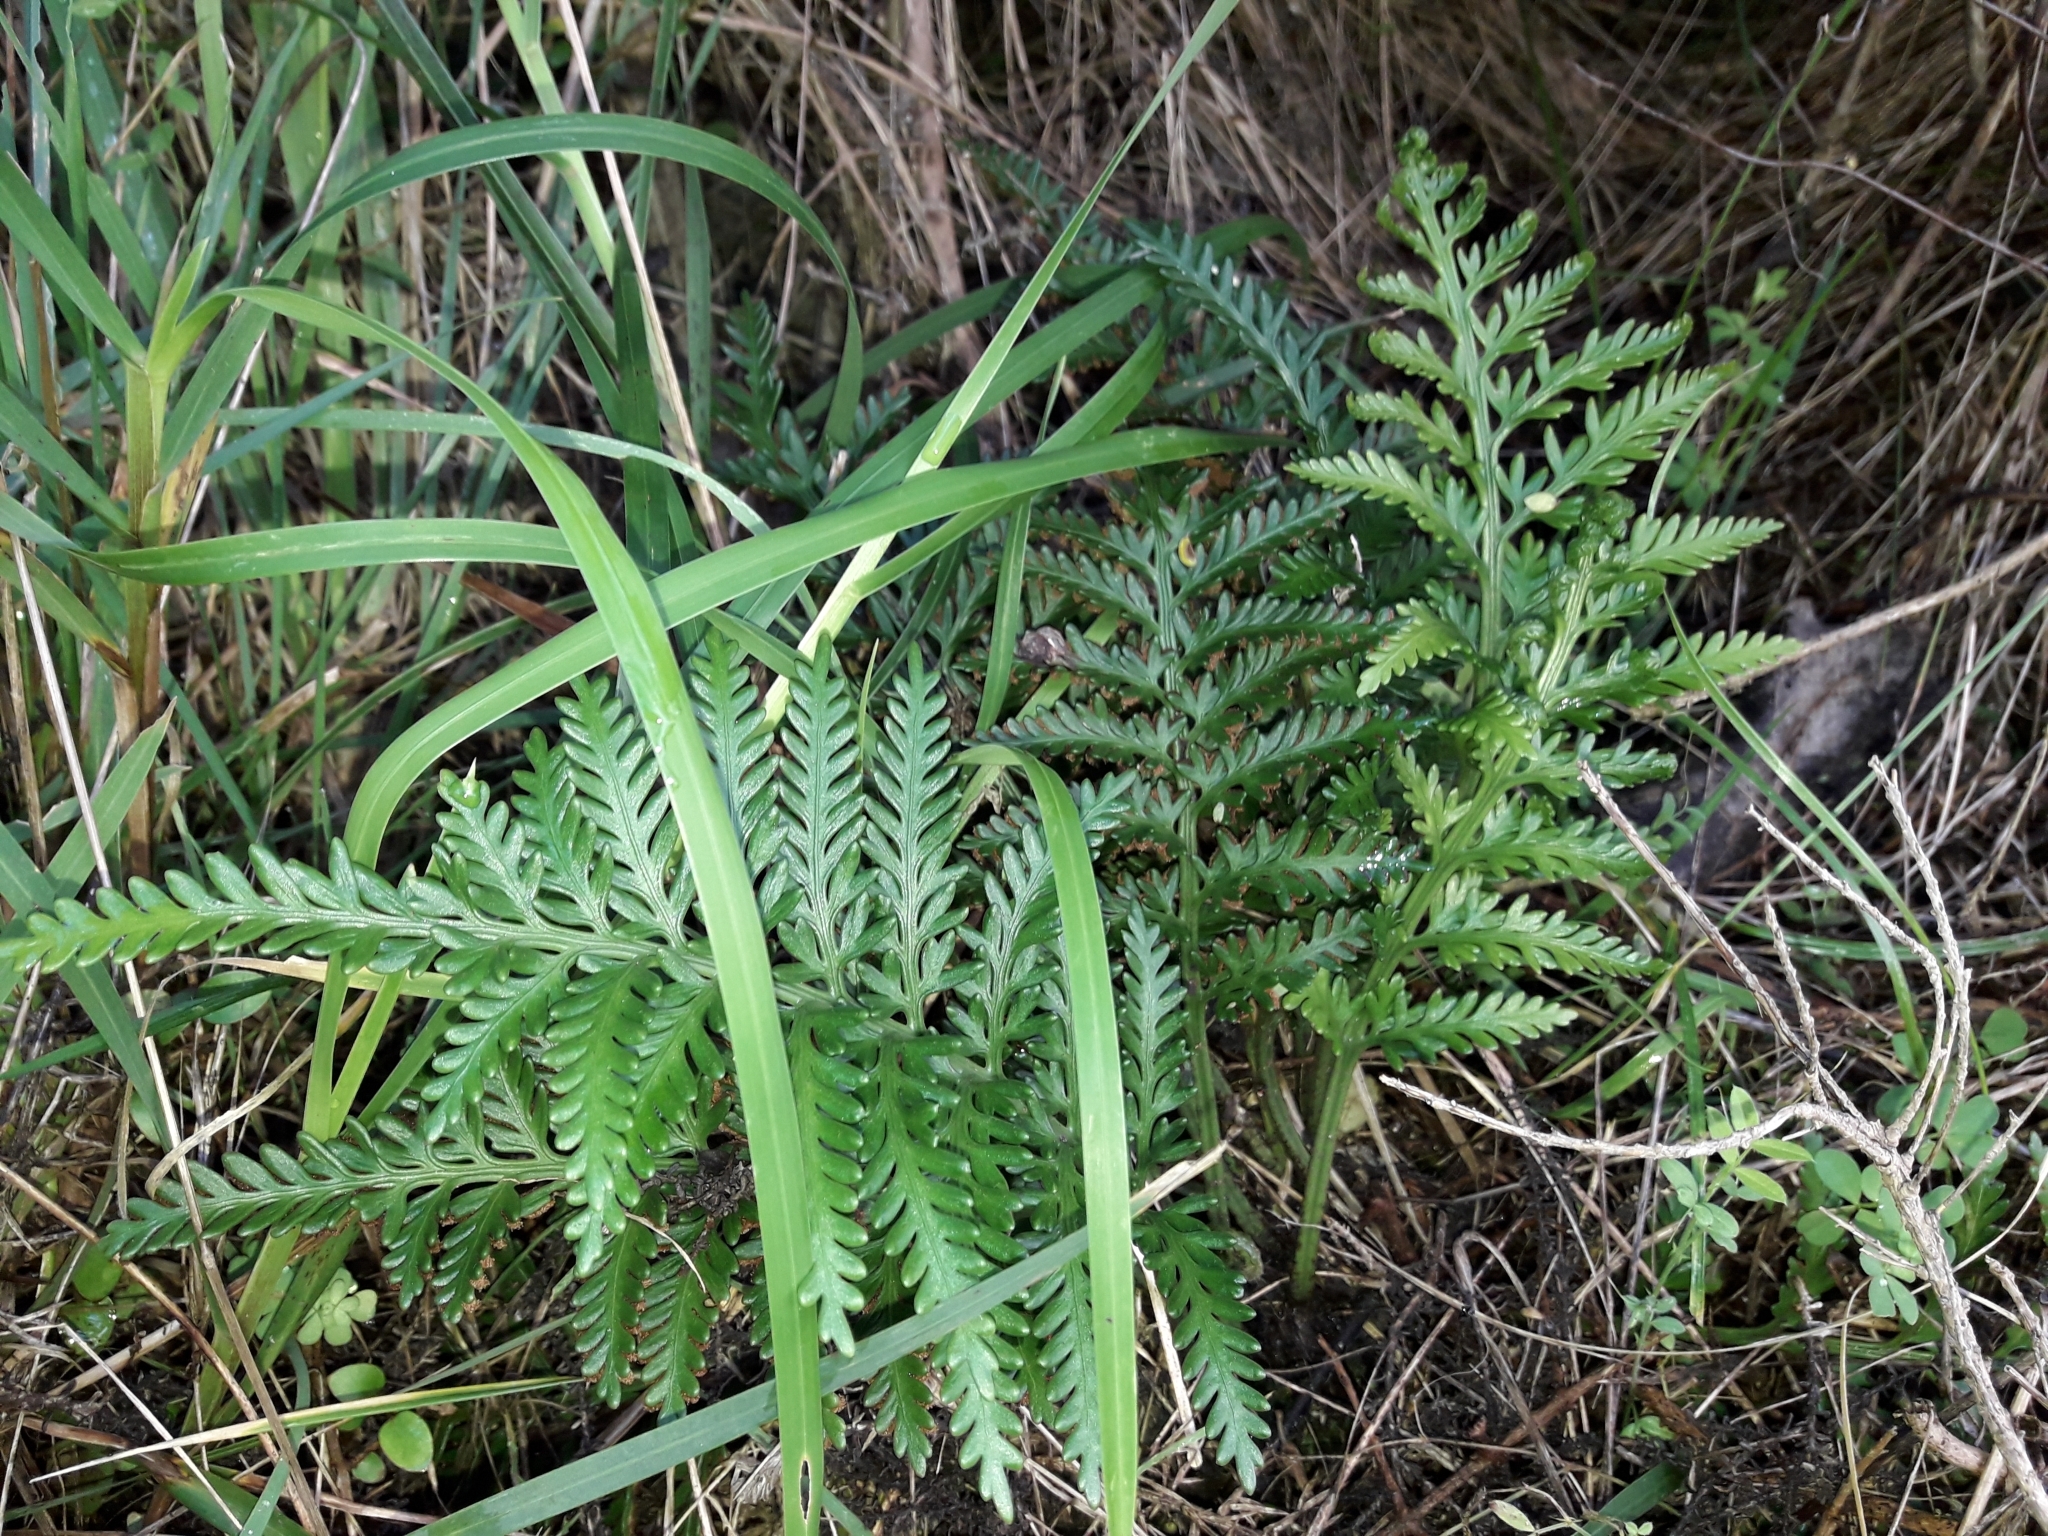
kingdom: Plantae
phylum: Tracheophyta
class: Polypodiopsida
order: Polypodiales
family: Aspleniaceae
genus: Asplenium
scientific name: Asplenium appendiculatum
